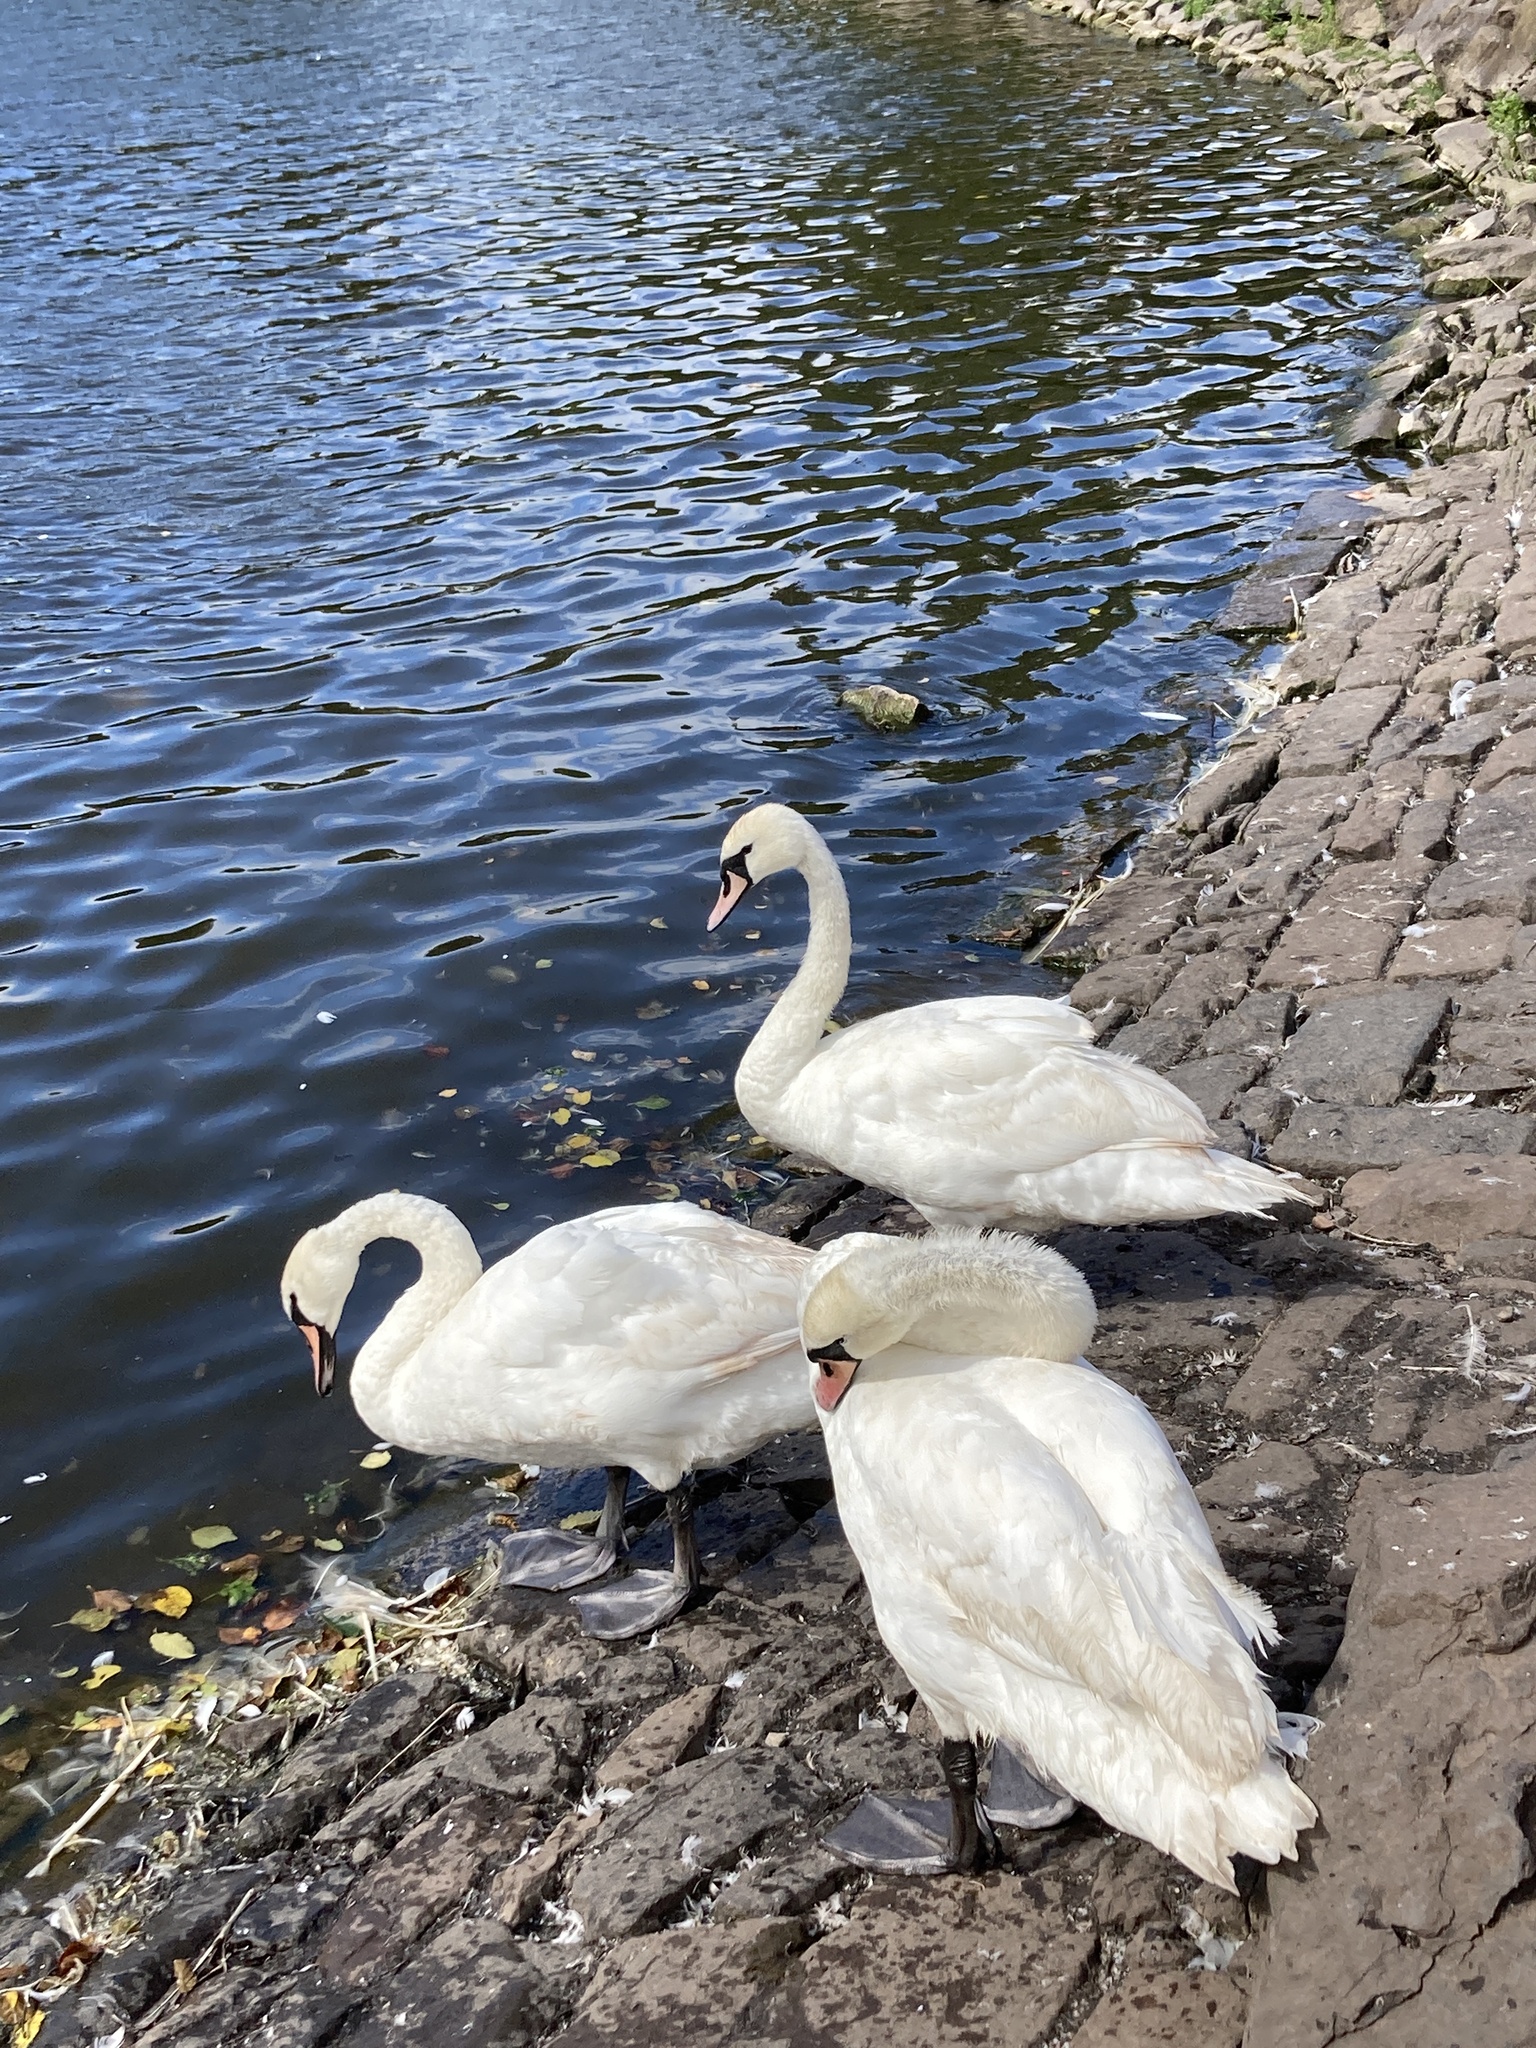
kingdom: Animalia
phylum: Chordata
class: Aves
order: Anseriformes
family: Anatidae
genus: Cygnus
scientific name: Cygnus olor
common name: Mute swan
